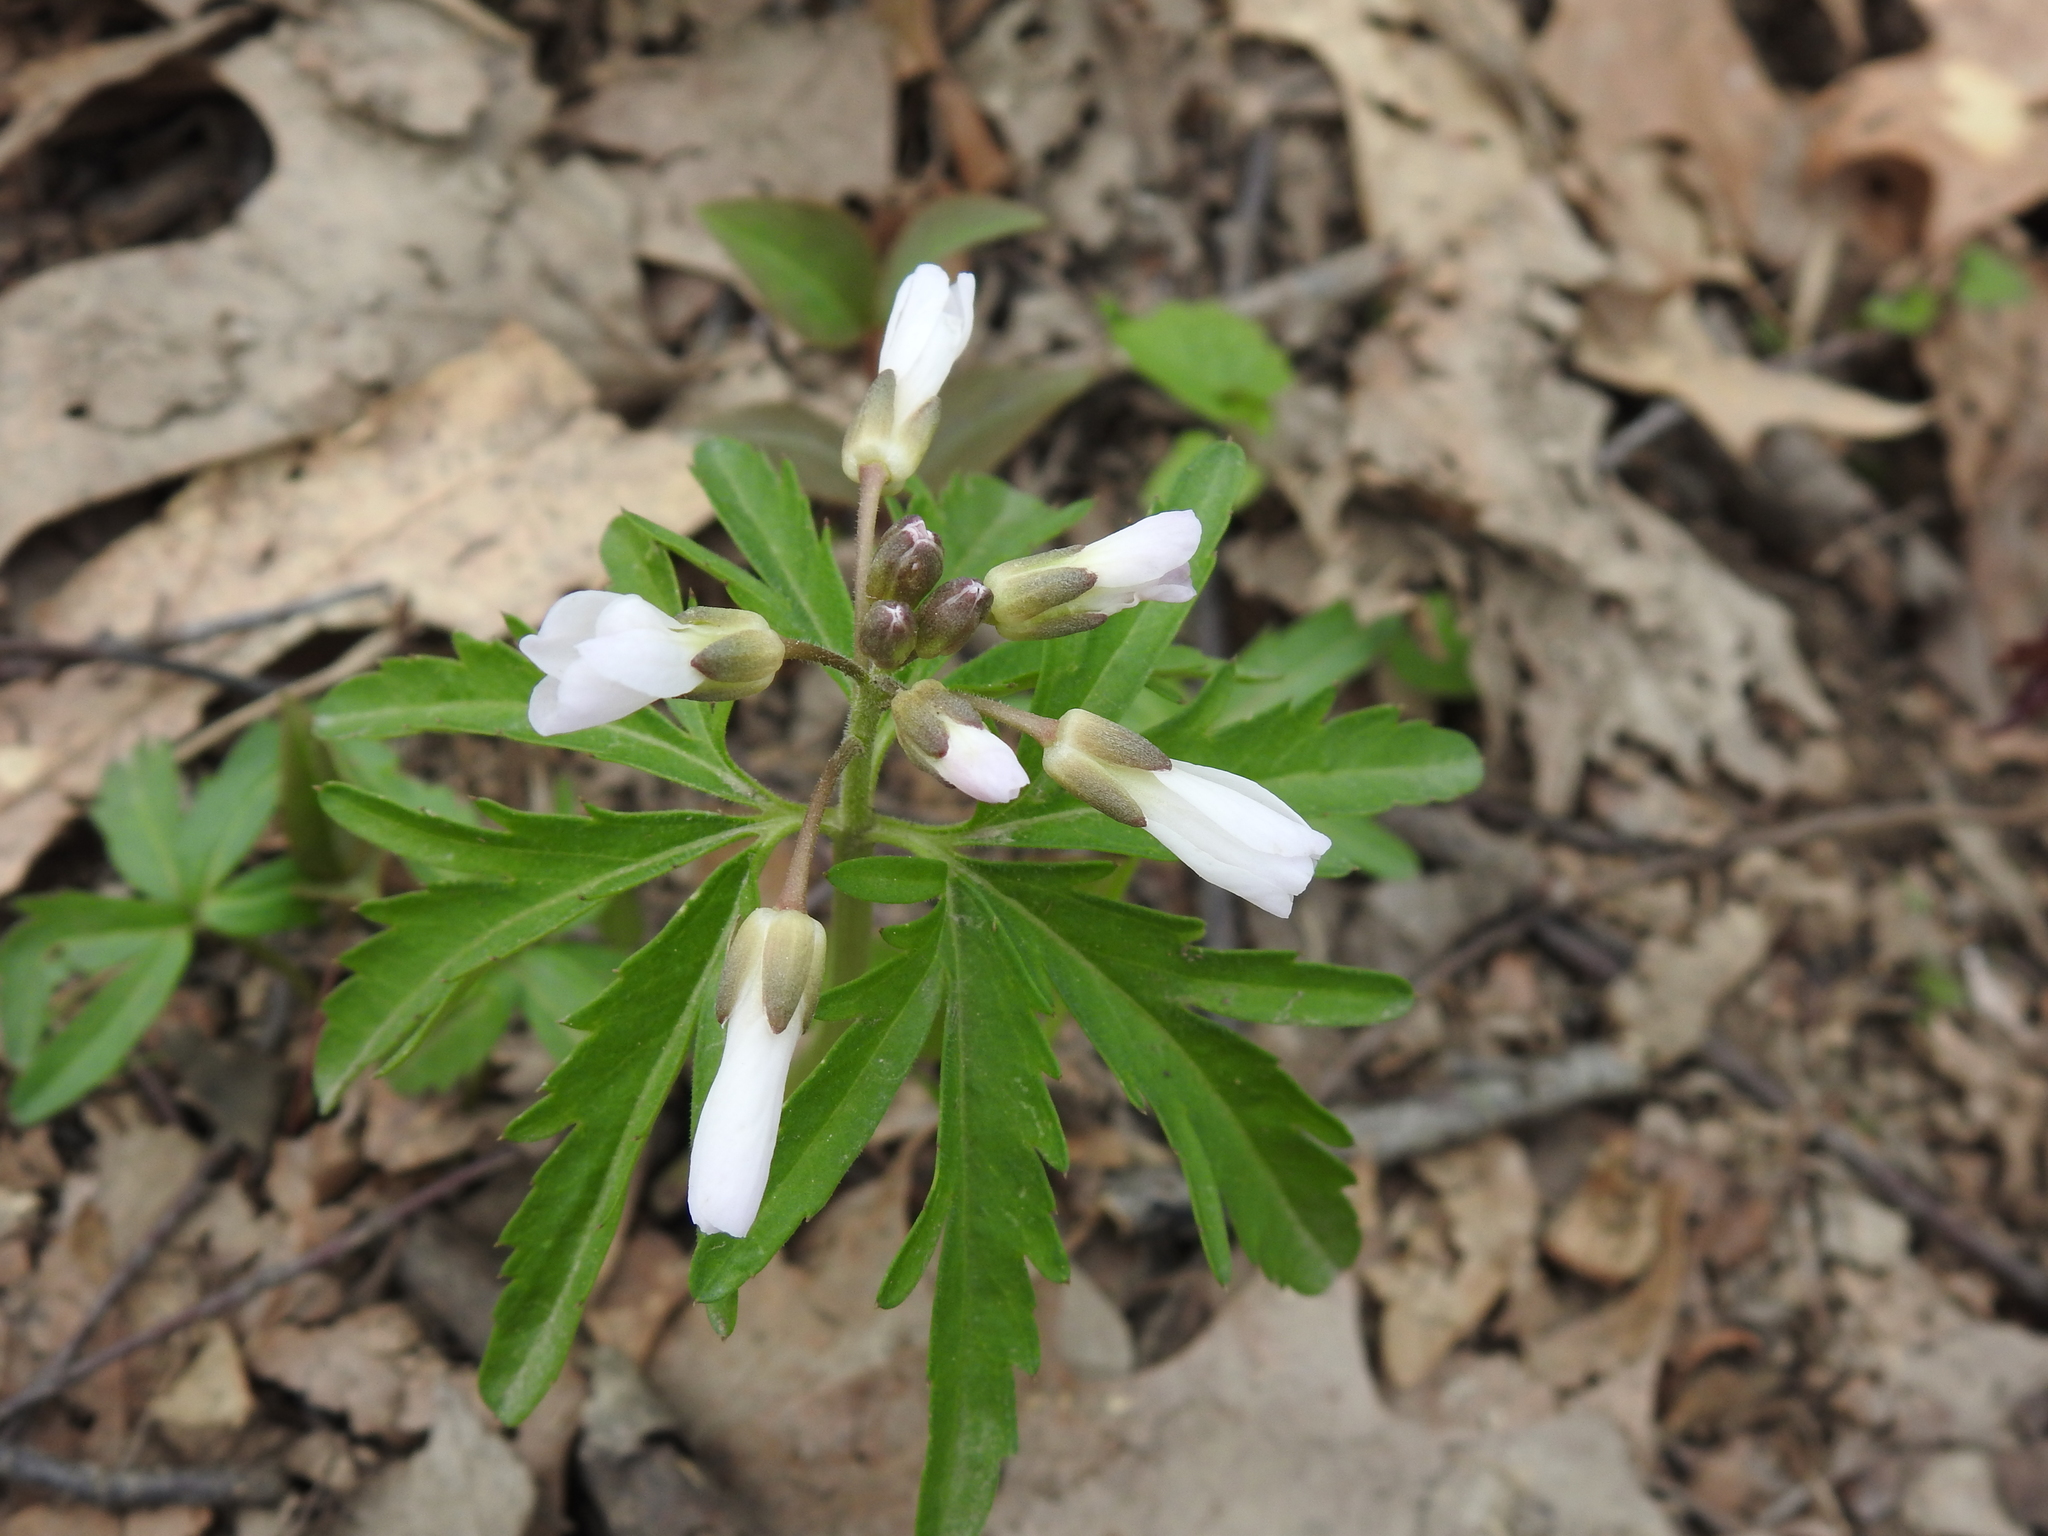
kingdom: Plantae
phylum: Tracheophyta
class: Magnoliopsida
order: Brassicales
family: Brassicaceae
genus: Cardamine
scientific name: Cardamine concatenata
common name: Cut-leaf toothcup
